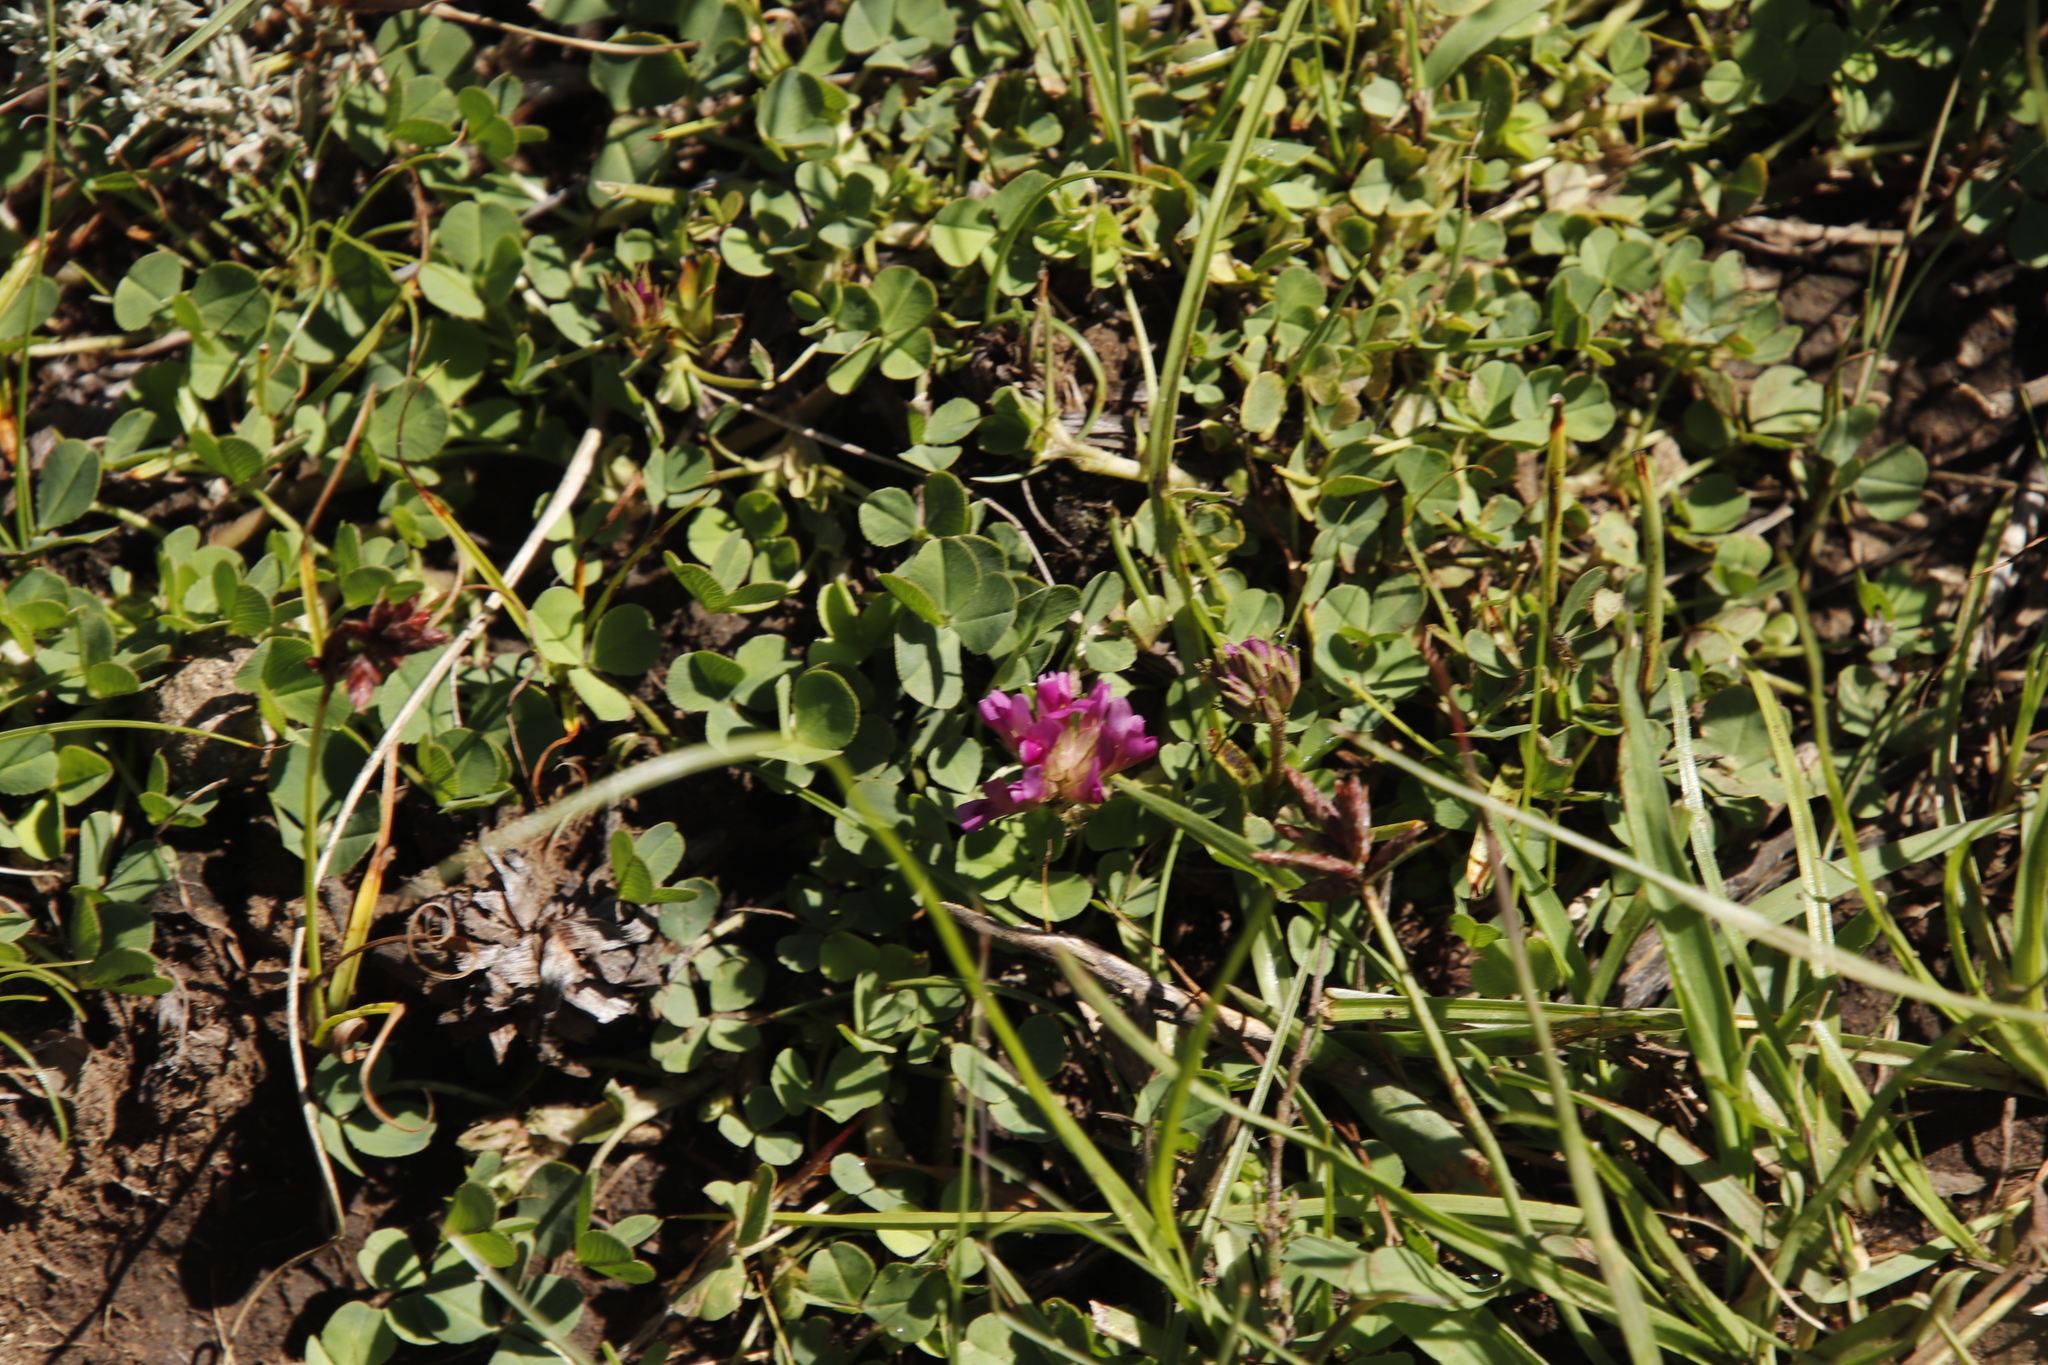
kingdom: Plantae
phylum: Tracheophyta
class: Magnoliopsida
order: Fabales
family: Fabaceae
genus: Trifolium
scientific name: Trifolium burchellianum
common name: Burchell's clover
